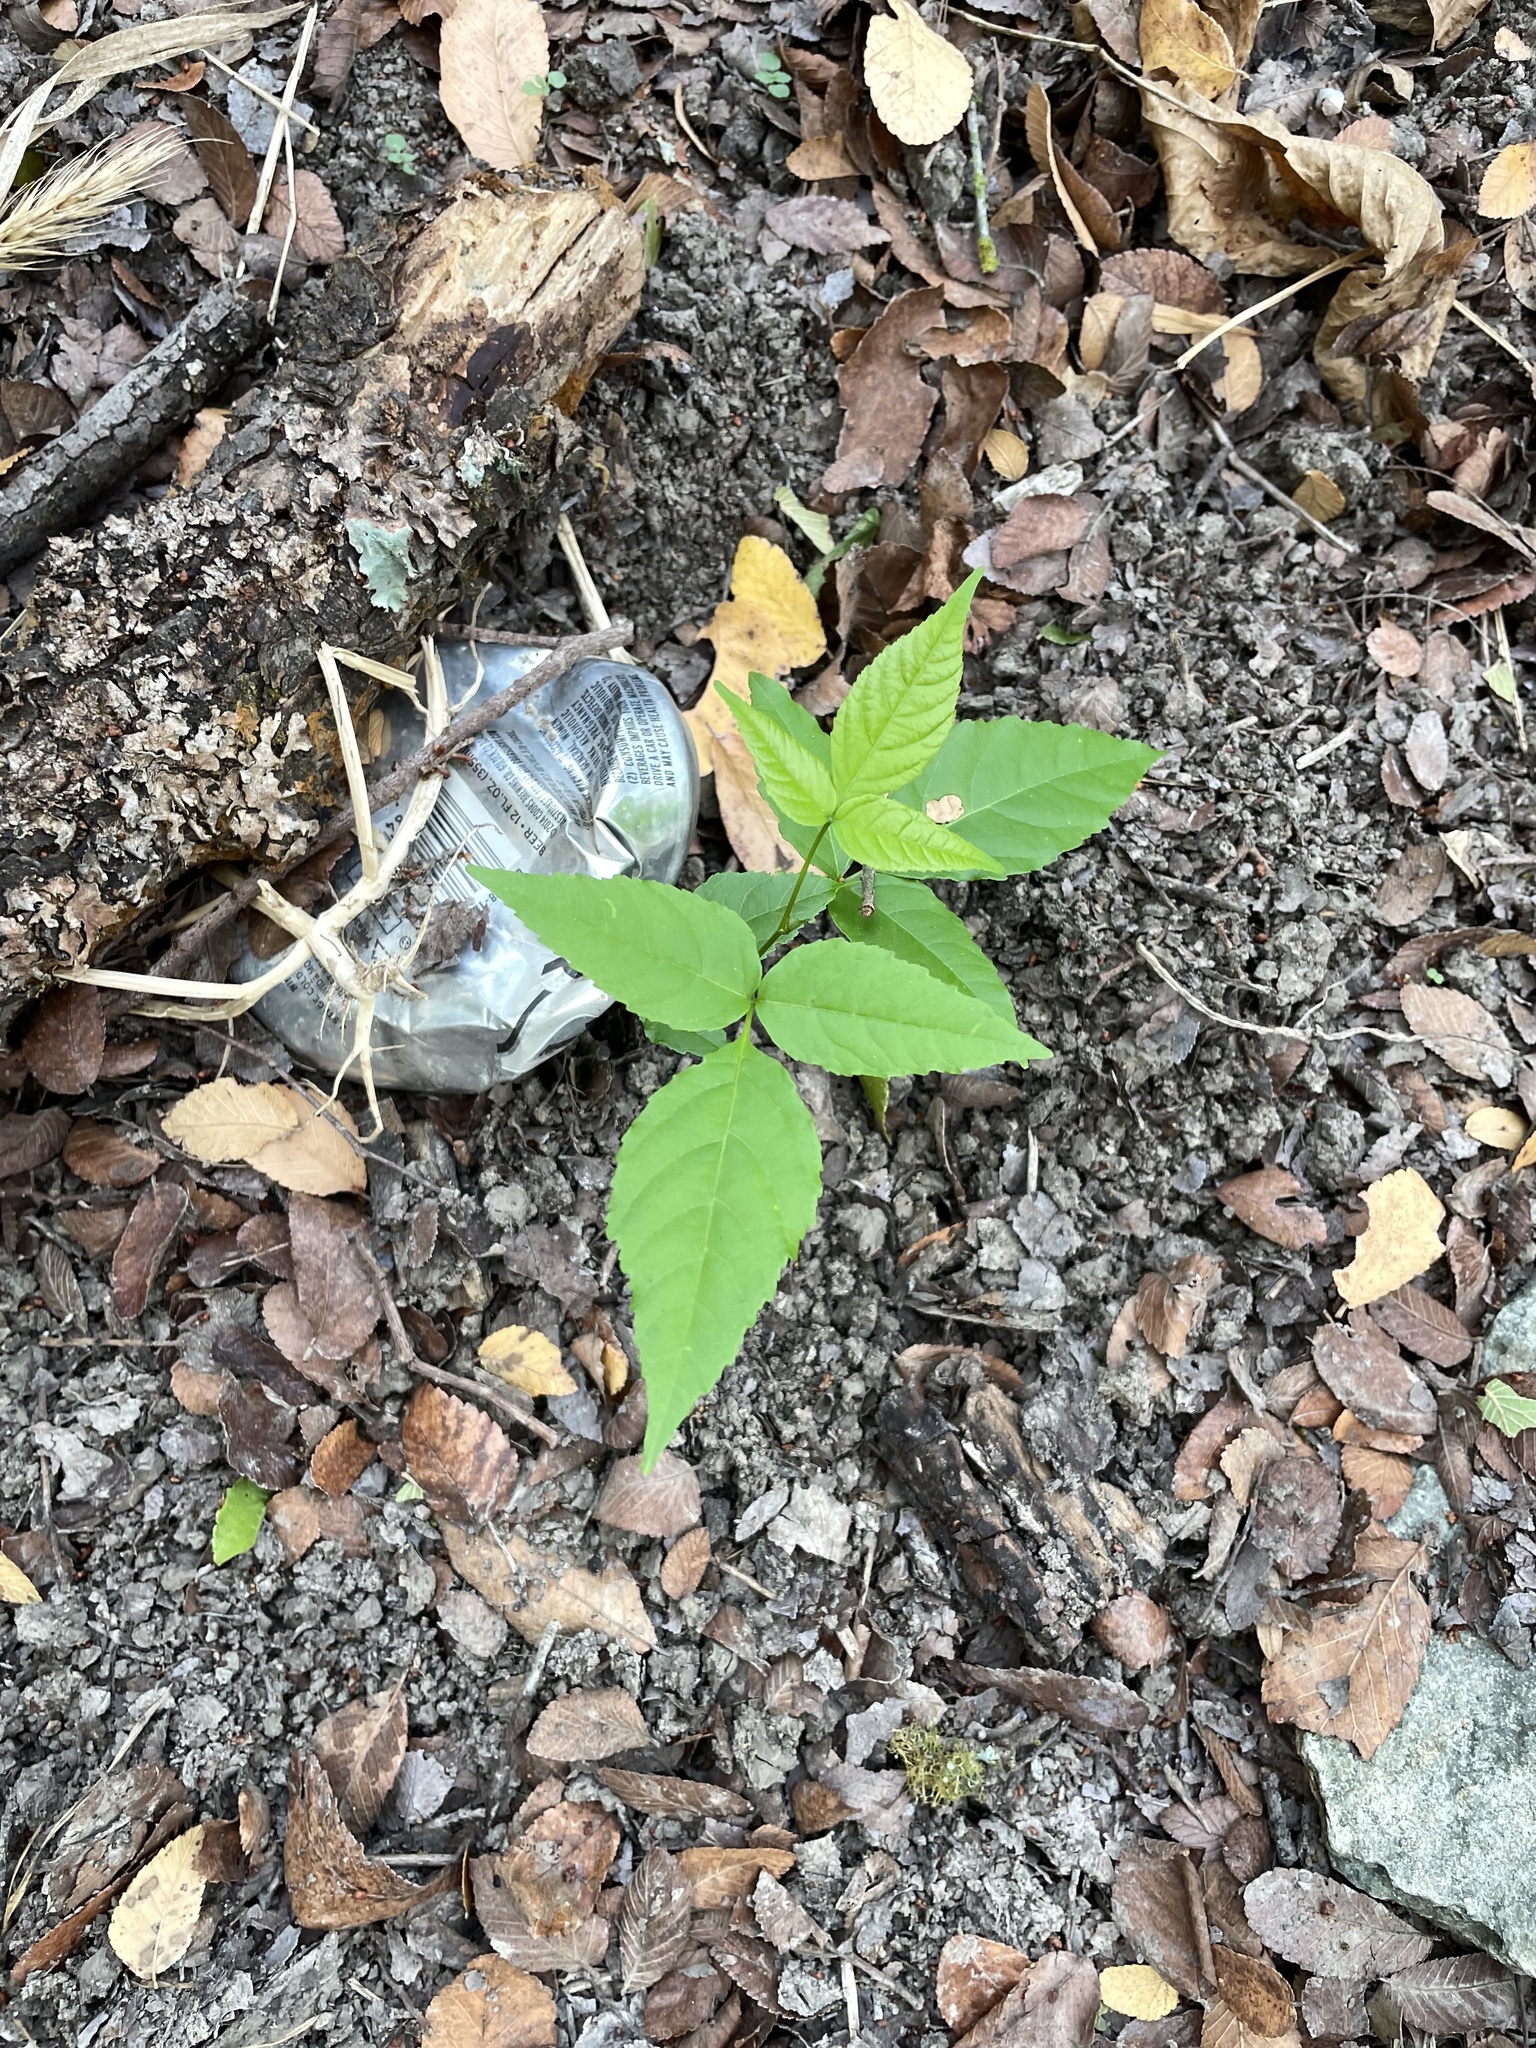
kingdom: Plantae
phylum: Tracheophyta
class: Magnoliopsida
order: Sapindales
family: Sapindaceae
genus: Ungnadia
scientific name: Ungnadia speciosa
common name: Texas-buckeye
